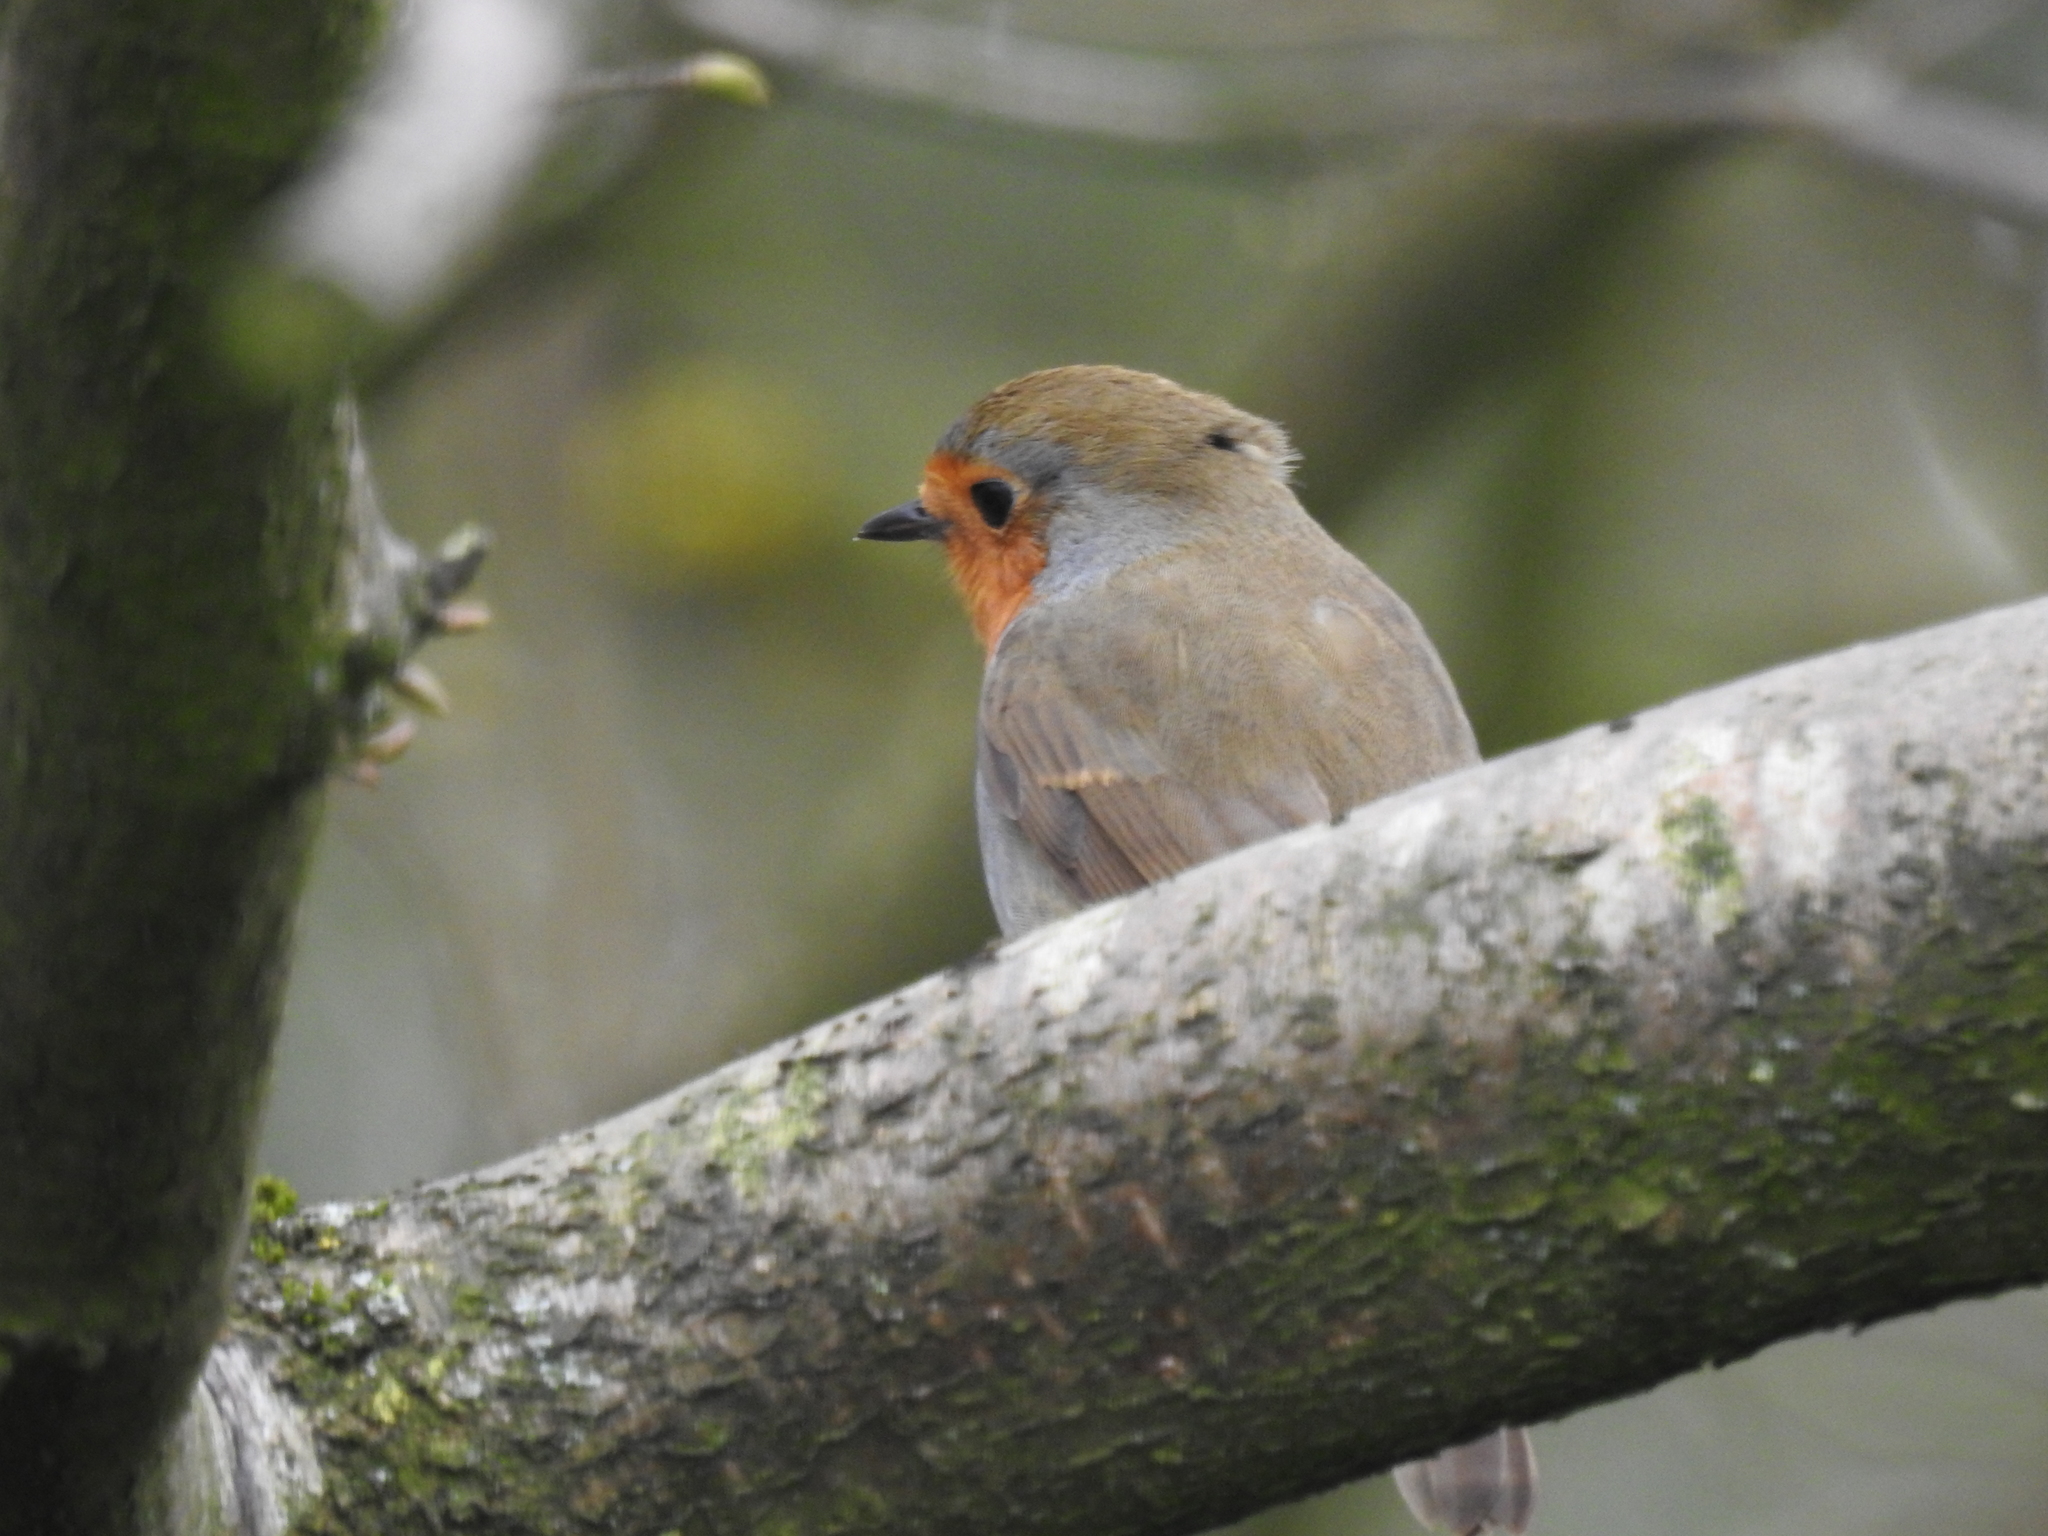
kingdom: Animalia
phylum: Chordata
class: Aves
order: Passeriformes
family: Muscicapidae
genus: Erithacus
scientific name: Erithacus rubecula
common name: European robin
